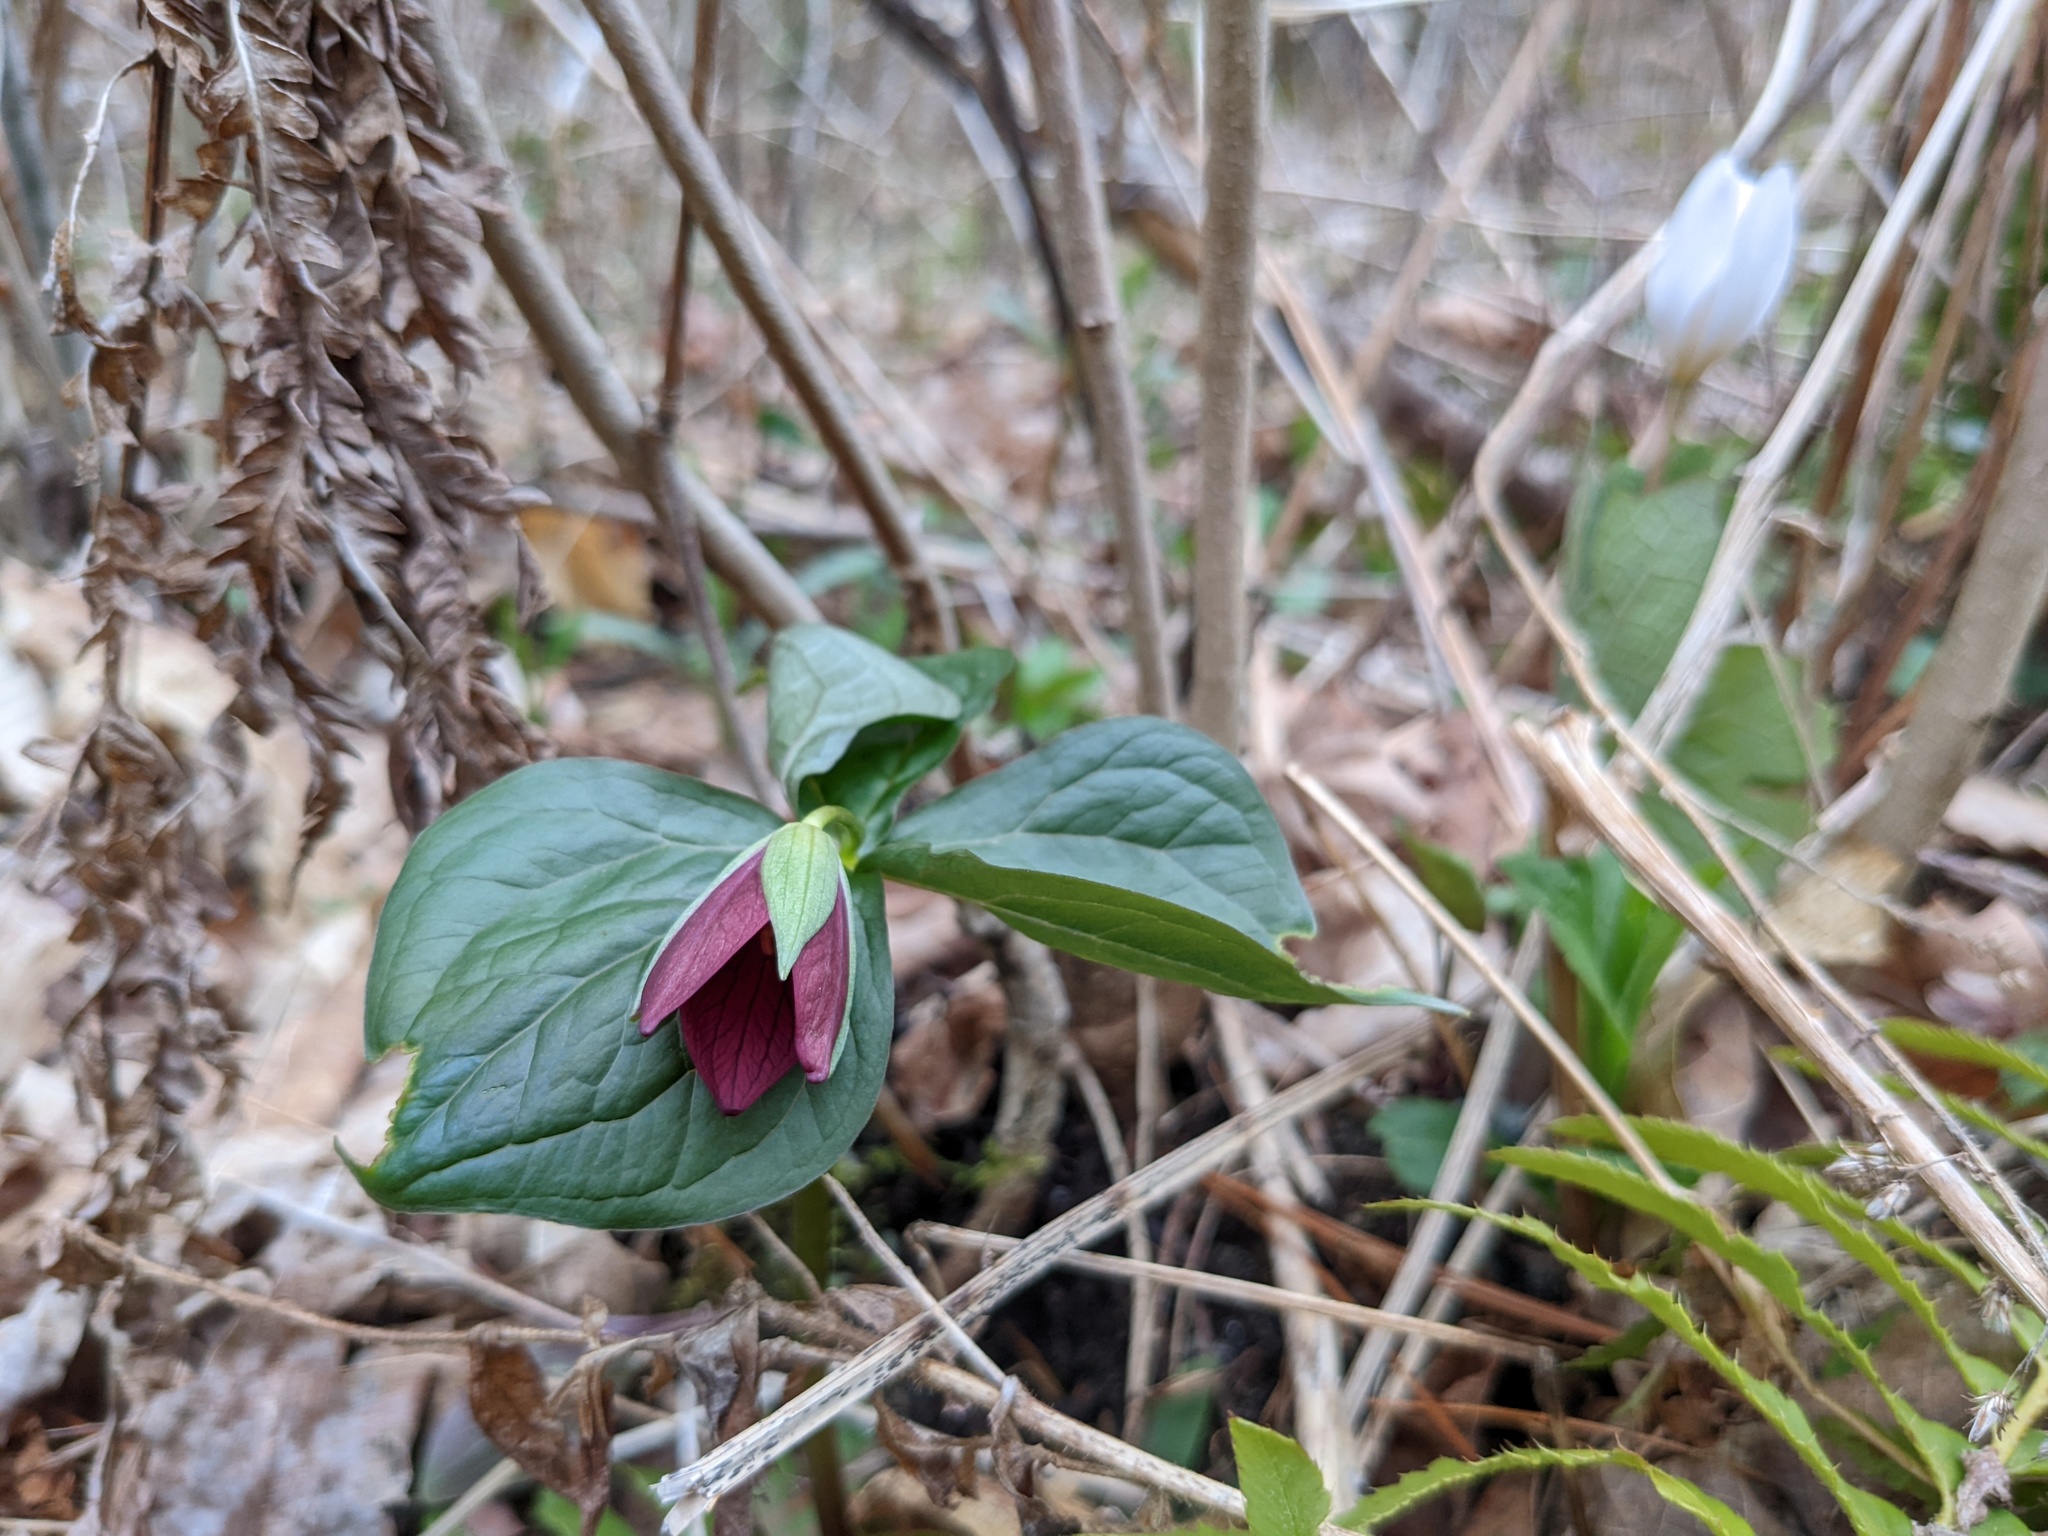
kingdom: Plantae
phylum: Tracheophyta
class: Liliopsida
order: Liliales
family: Melanthiaceae
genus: Trillium
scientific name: Trillium erectum
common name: Purple trillium
